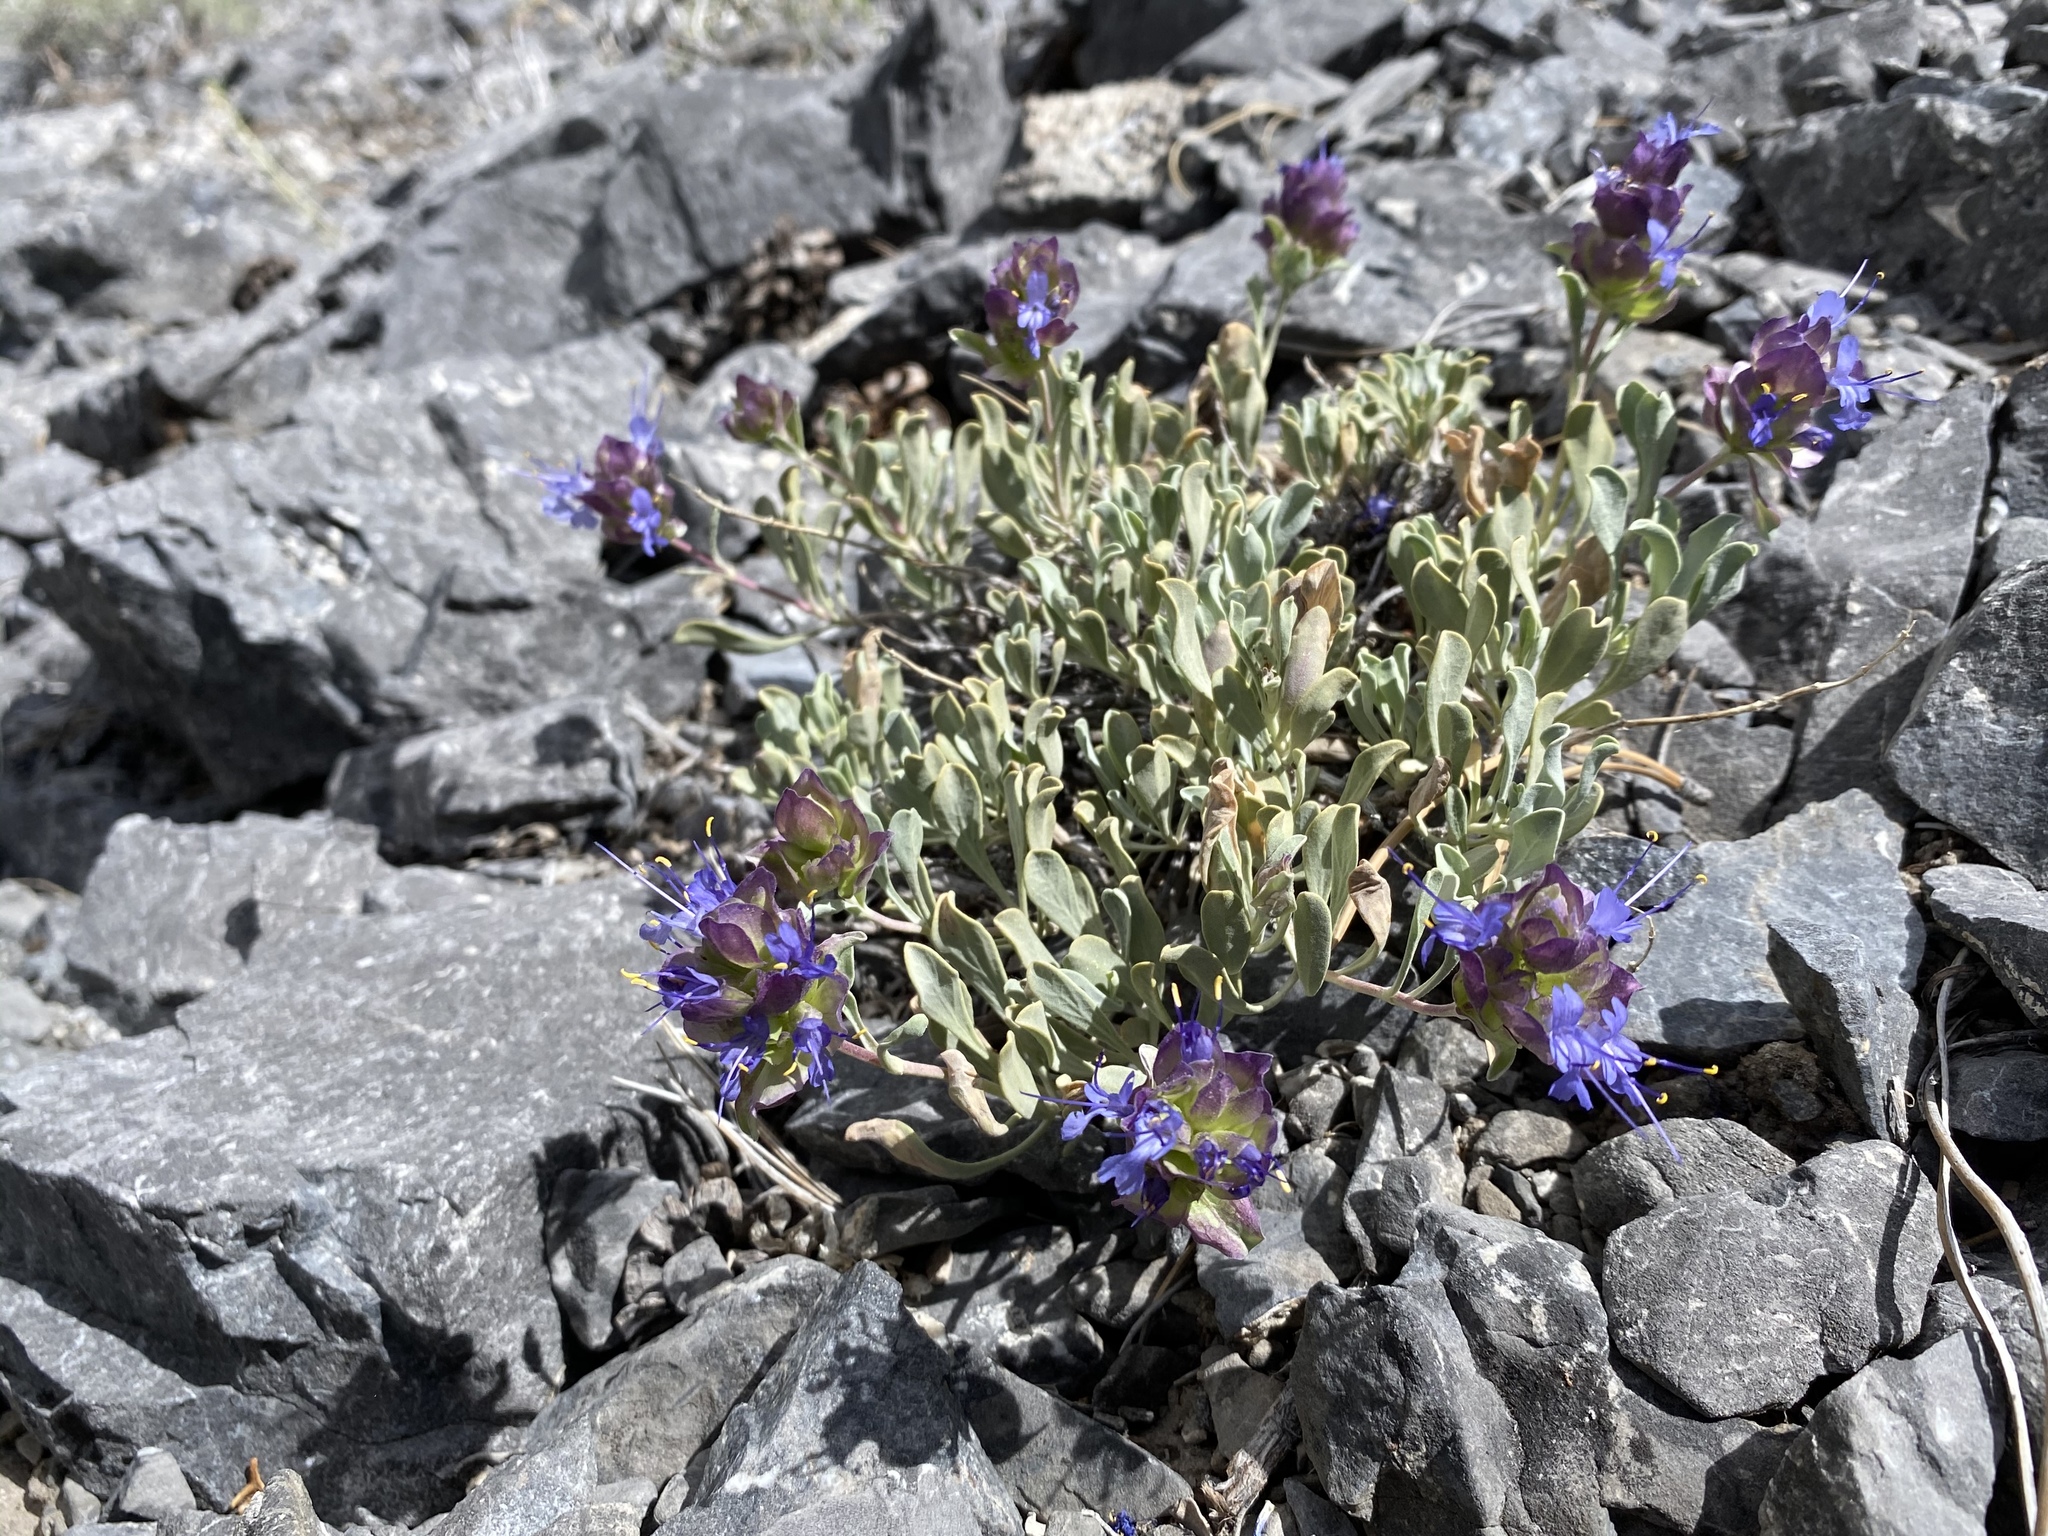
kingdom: Plantae
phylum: Tracheophyta
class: Magnoliopsida
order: Lamiales
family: Lamiaceae
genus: Salvia
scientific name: Salvia dorrii
